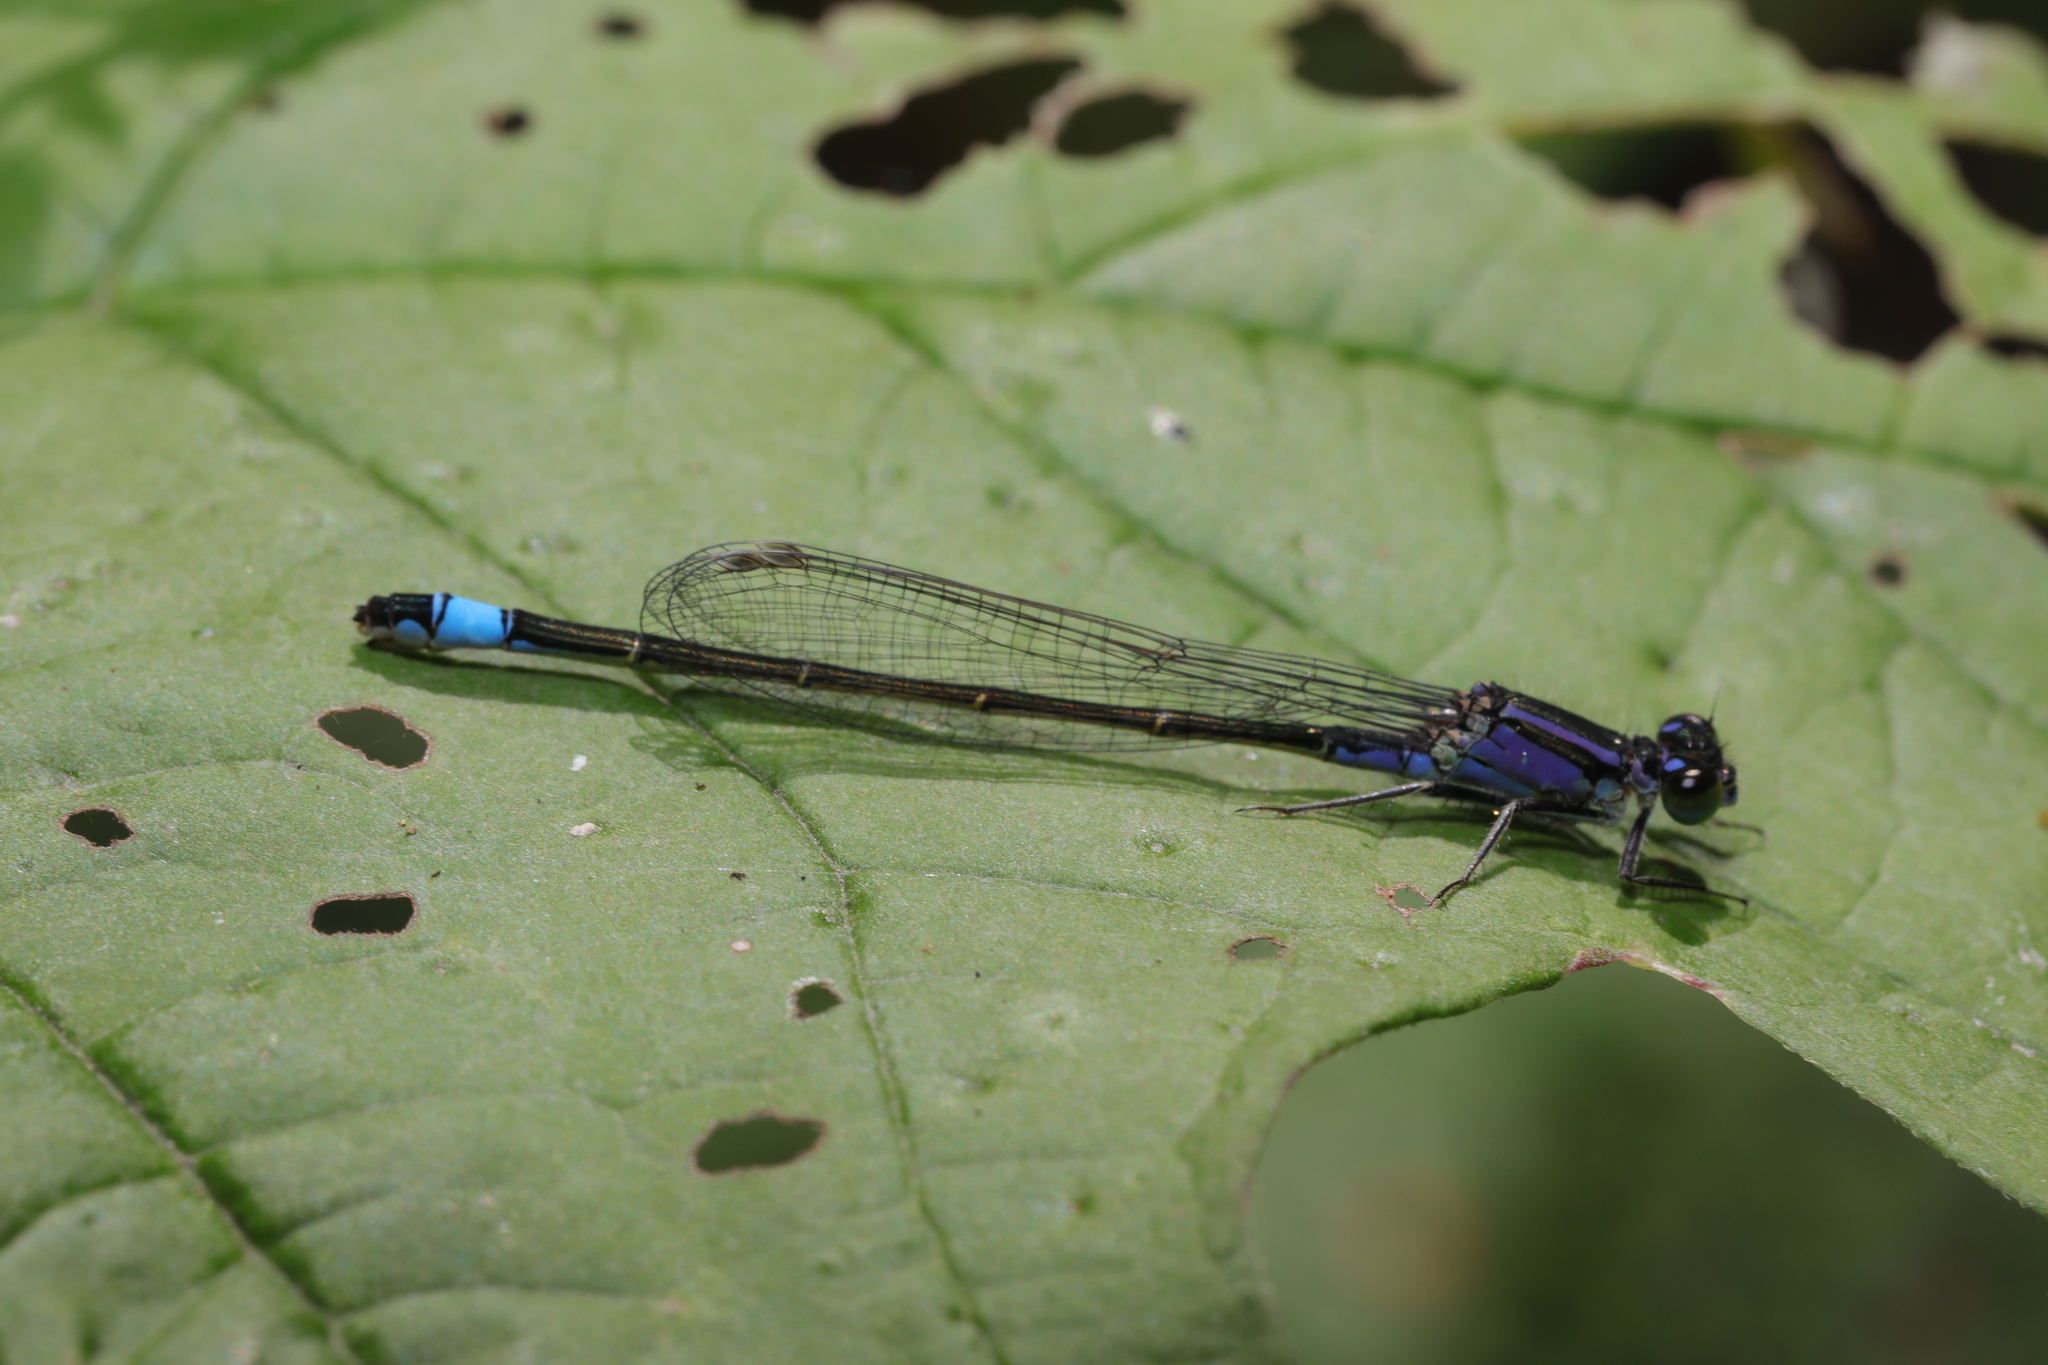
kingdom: Animalia
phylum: Arthropoda
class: Insecta
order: Odonata
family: Coenagrionidae
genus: Ischnura
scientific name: Ischnura elegans
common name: Blue-tailed damselfly
